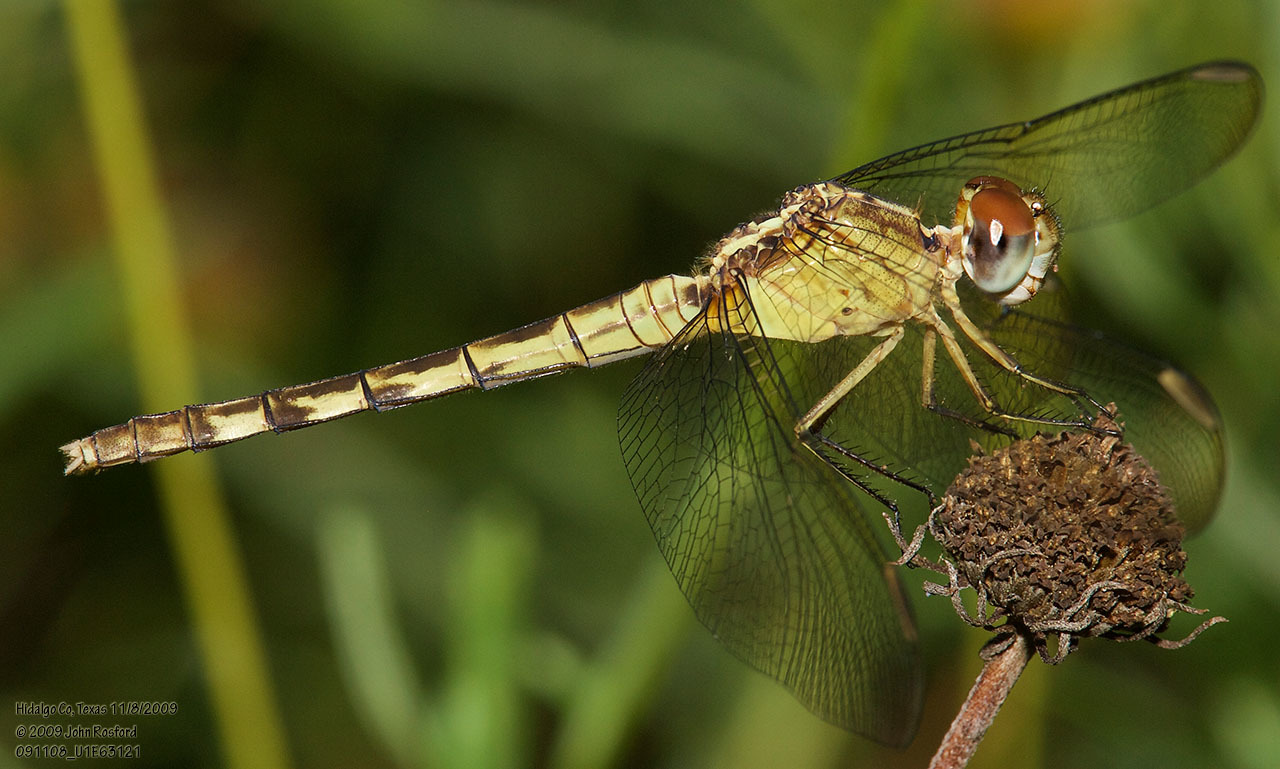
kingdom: Animalia
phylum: Arthropoda
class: Insecta
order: Odonata
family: Libellulidae
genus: Erythrodiplax
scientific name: Erythrodiplax umbrata
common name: Band-winged dragonlet
